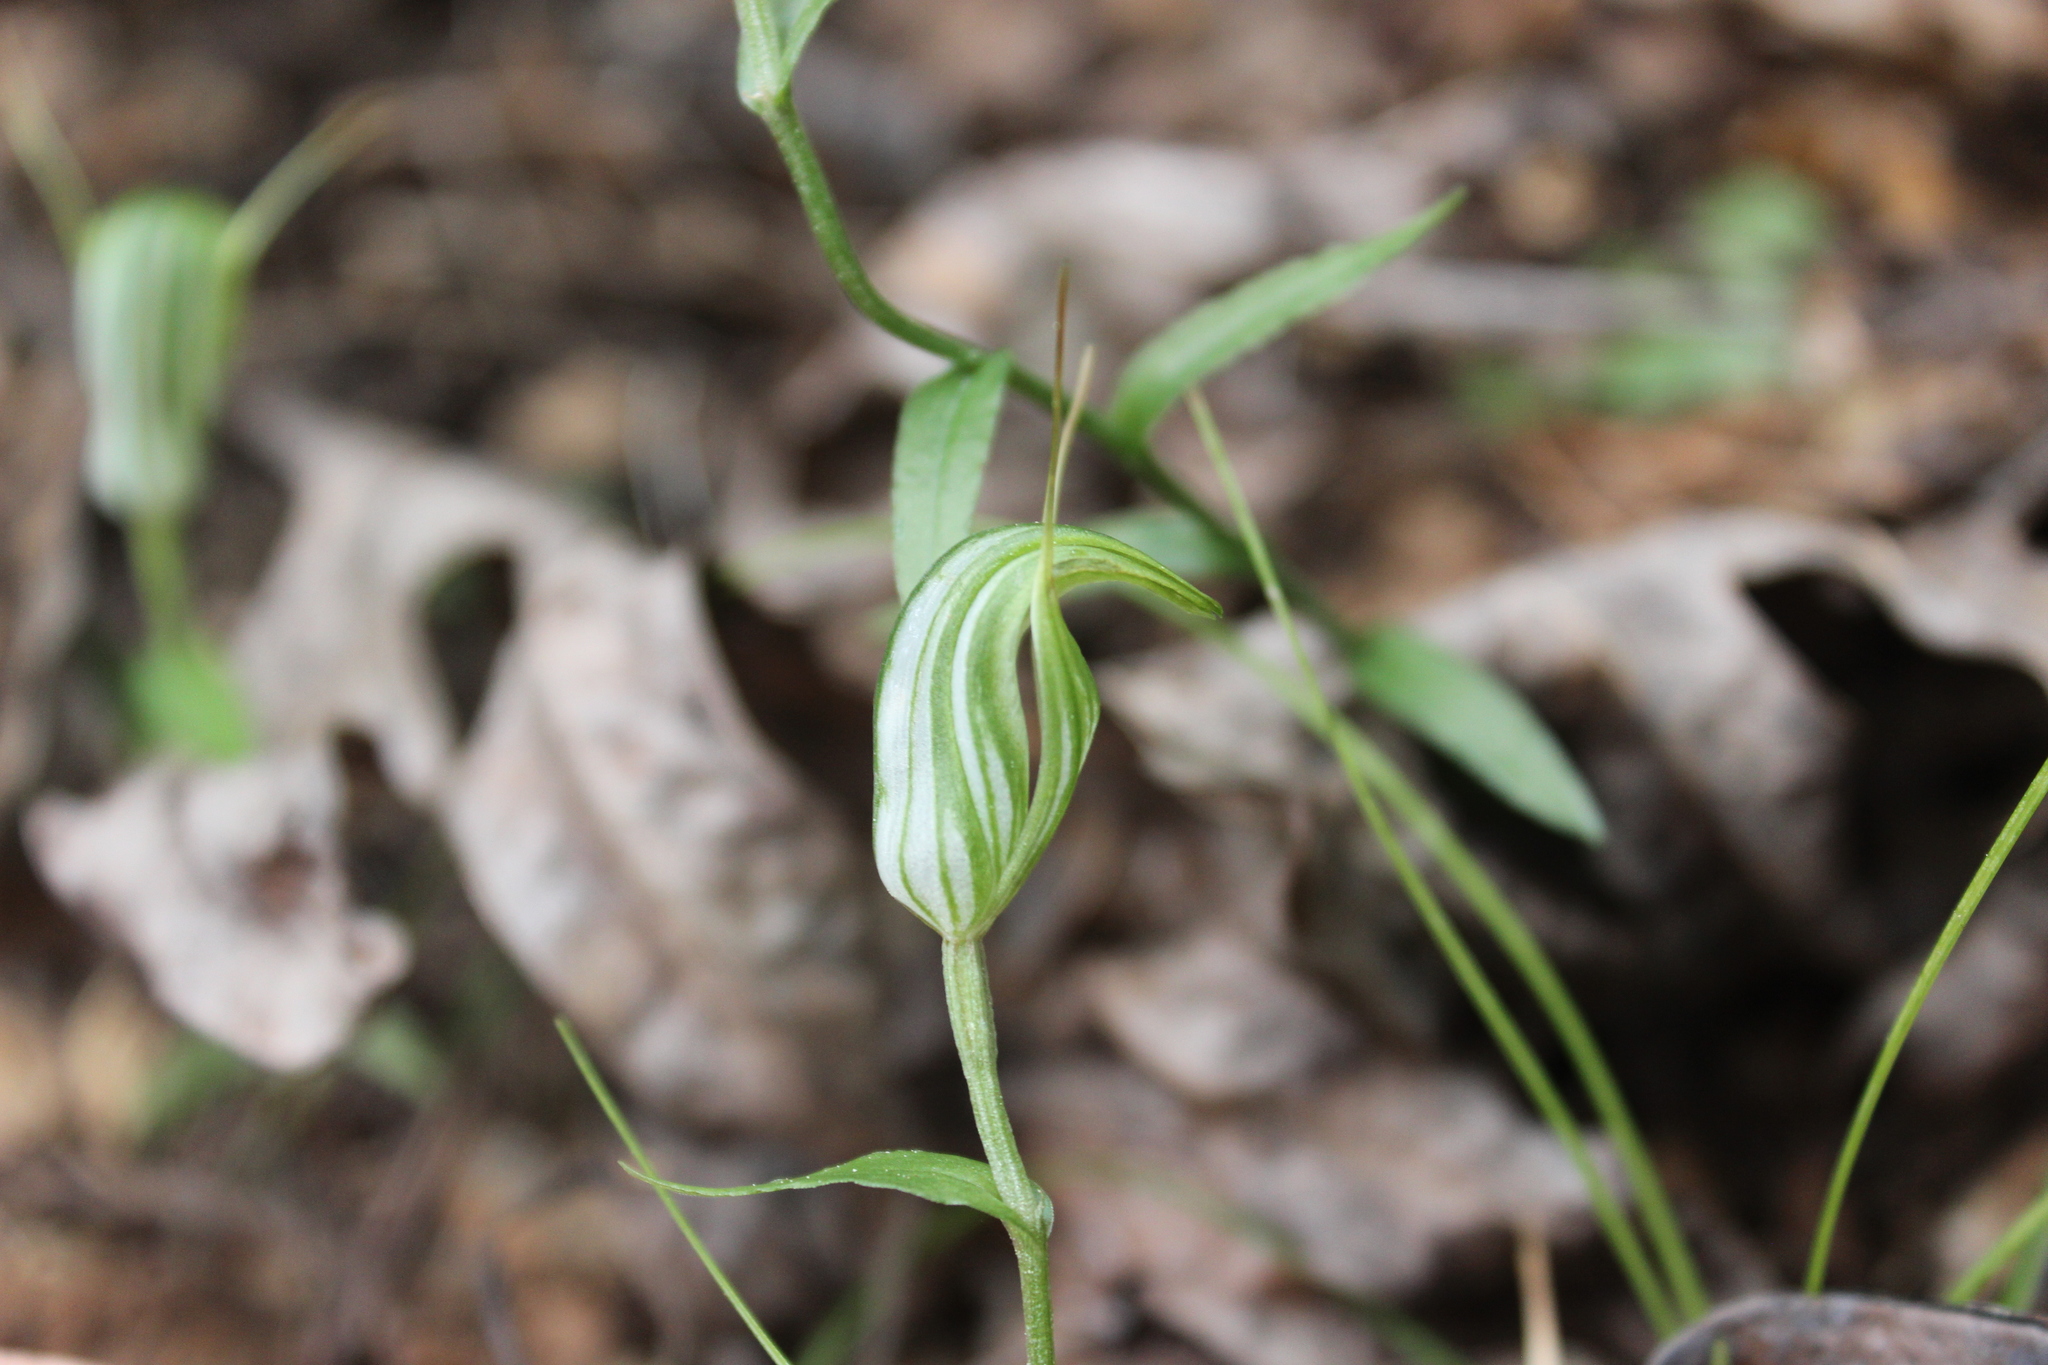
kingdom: Plantae
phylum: Tracheophyta
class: Liliopsida
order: Asparagales
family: Orchidaceae
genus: Pterostylis
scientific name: Pterostylis alobula
